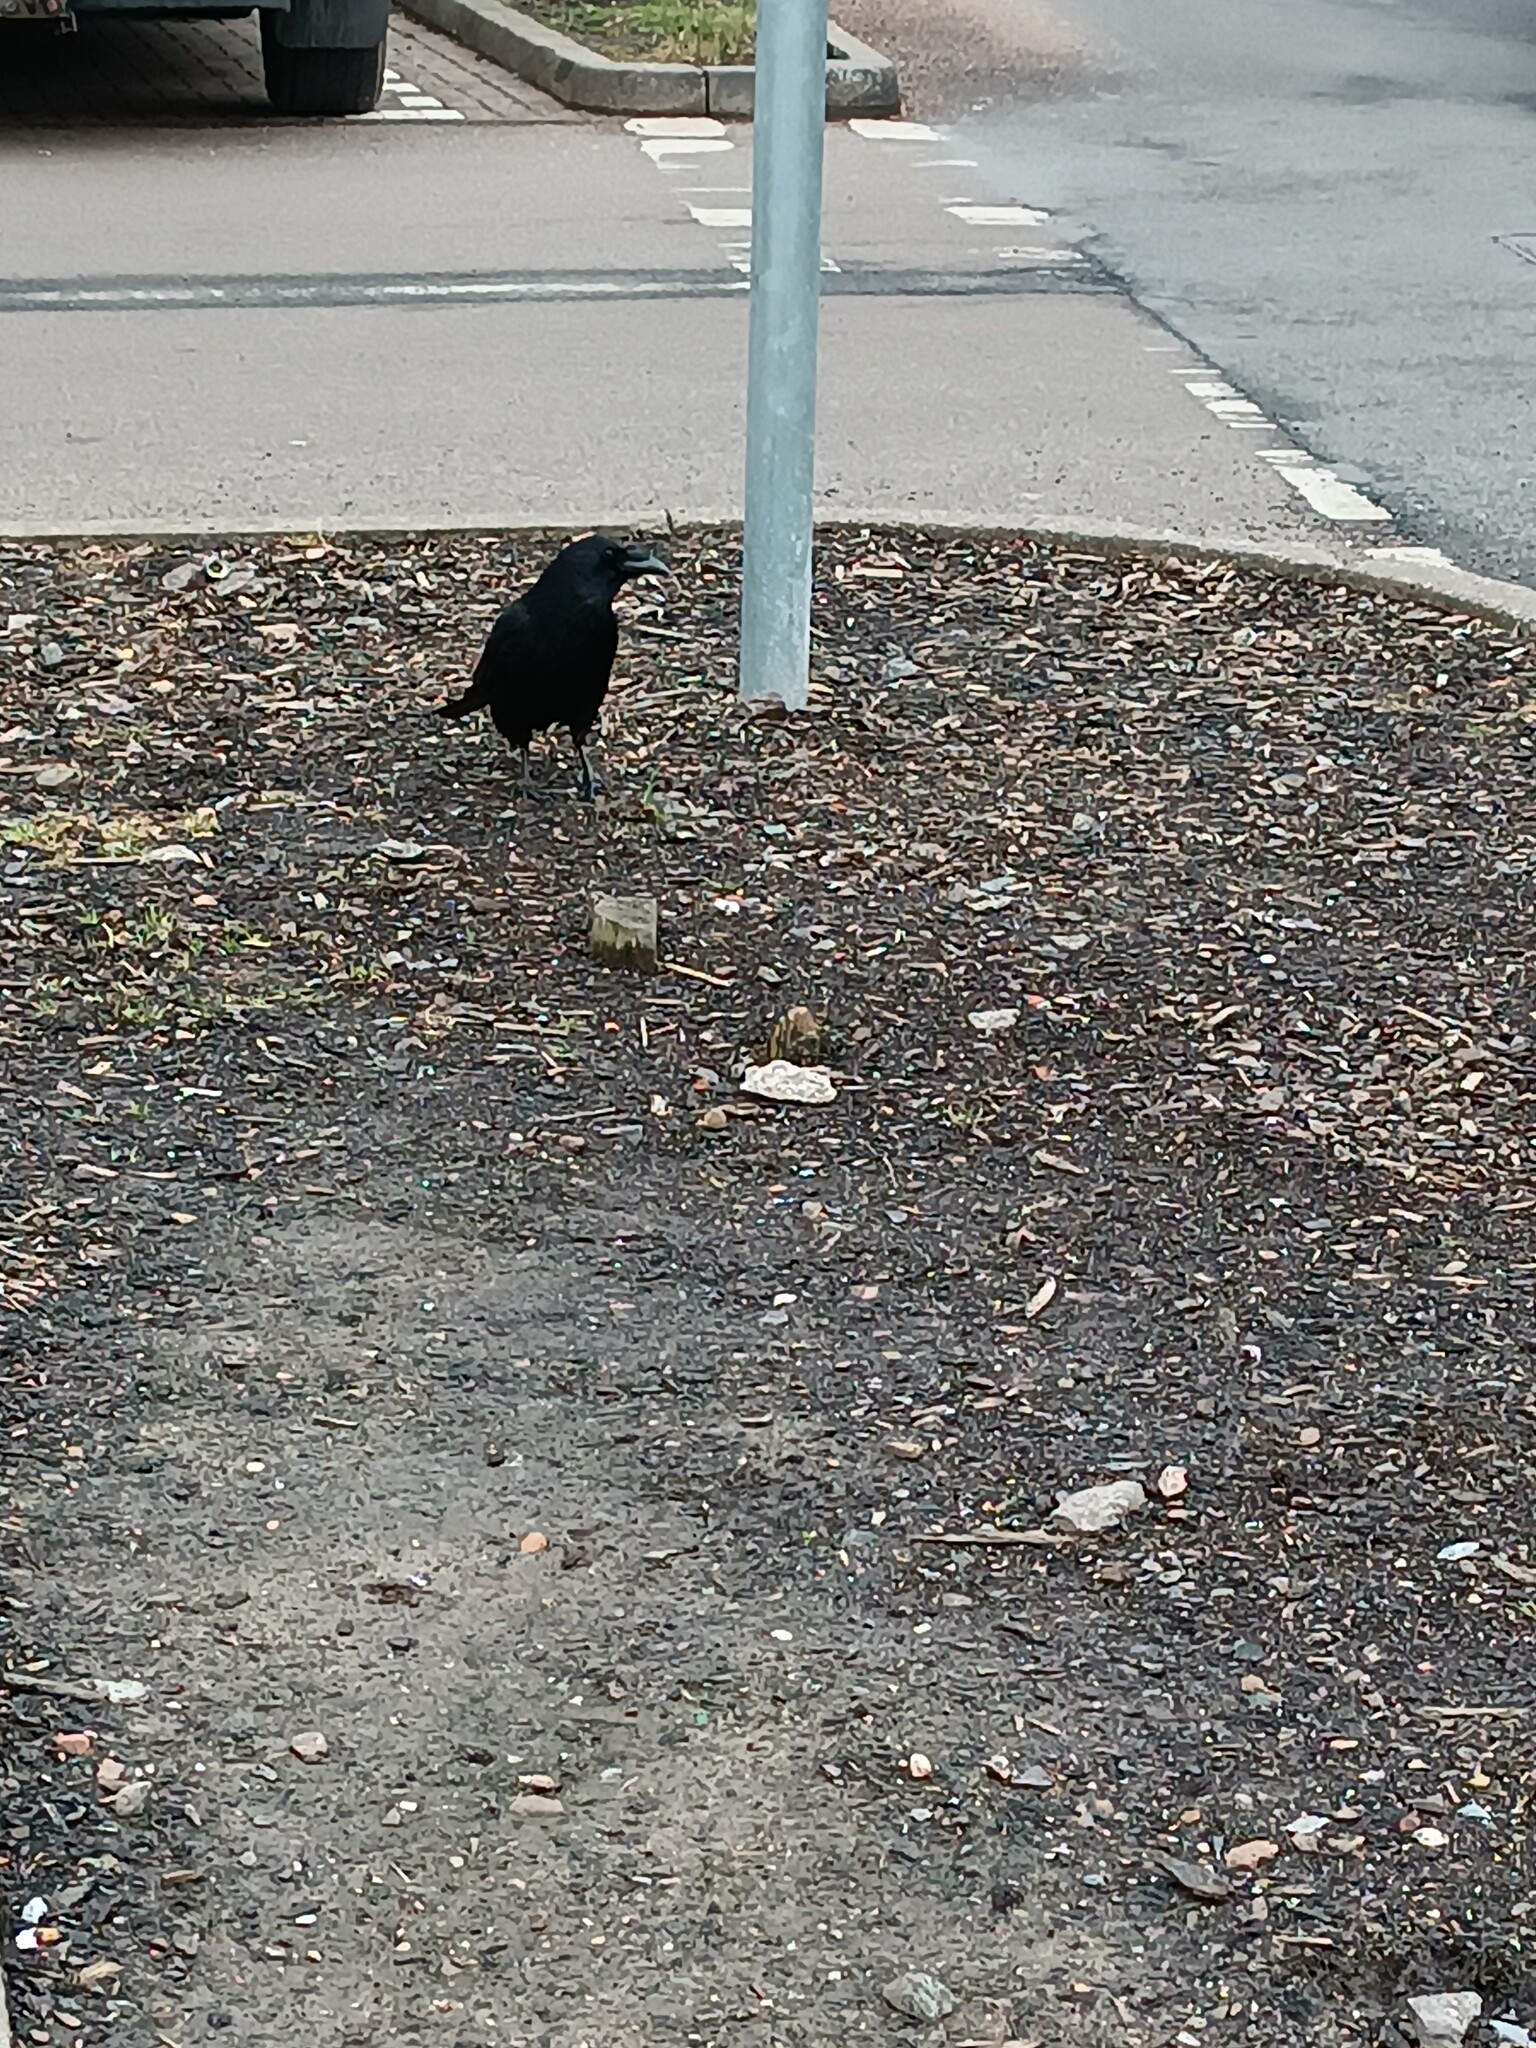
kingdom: Animalia
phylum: Chordata
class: Aves
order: Passeriformes
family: Corvidae
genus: Corvus
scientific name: Corvus corone
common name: Carrion crow
